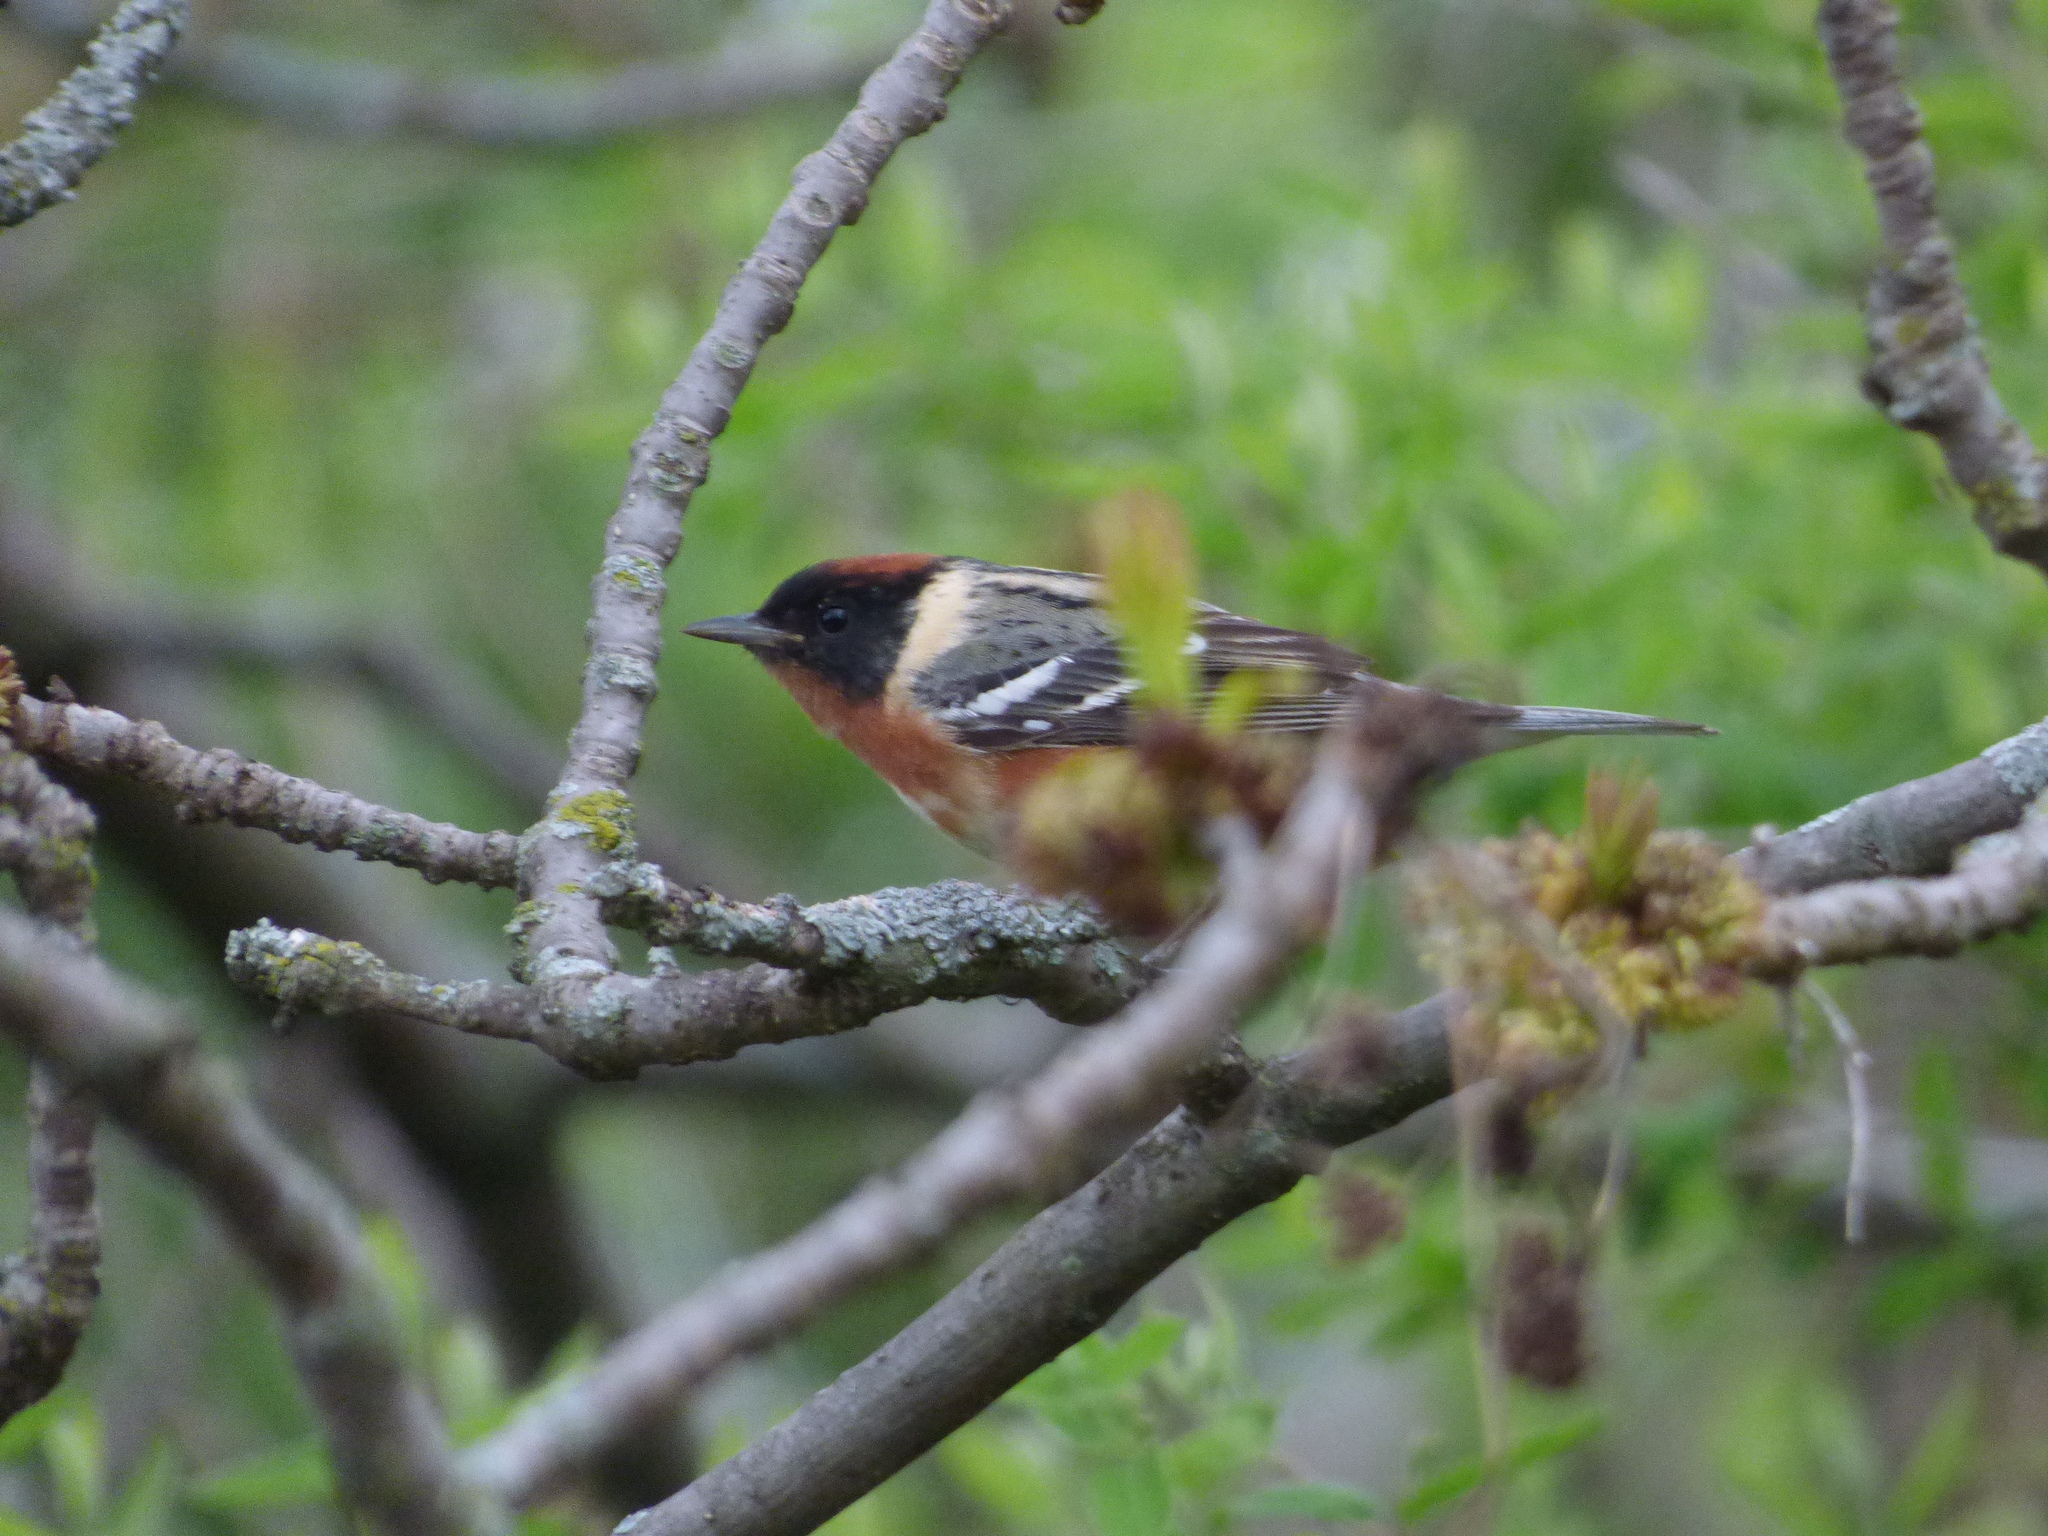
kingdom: Animalia
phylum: Chordata
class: Aves
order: Passeriformes
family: Parulidae
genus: Setophaga
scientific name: Setophaga castanea
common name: Bay-breasted warbler
